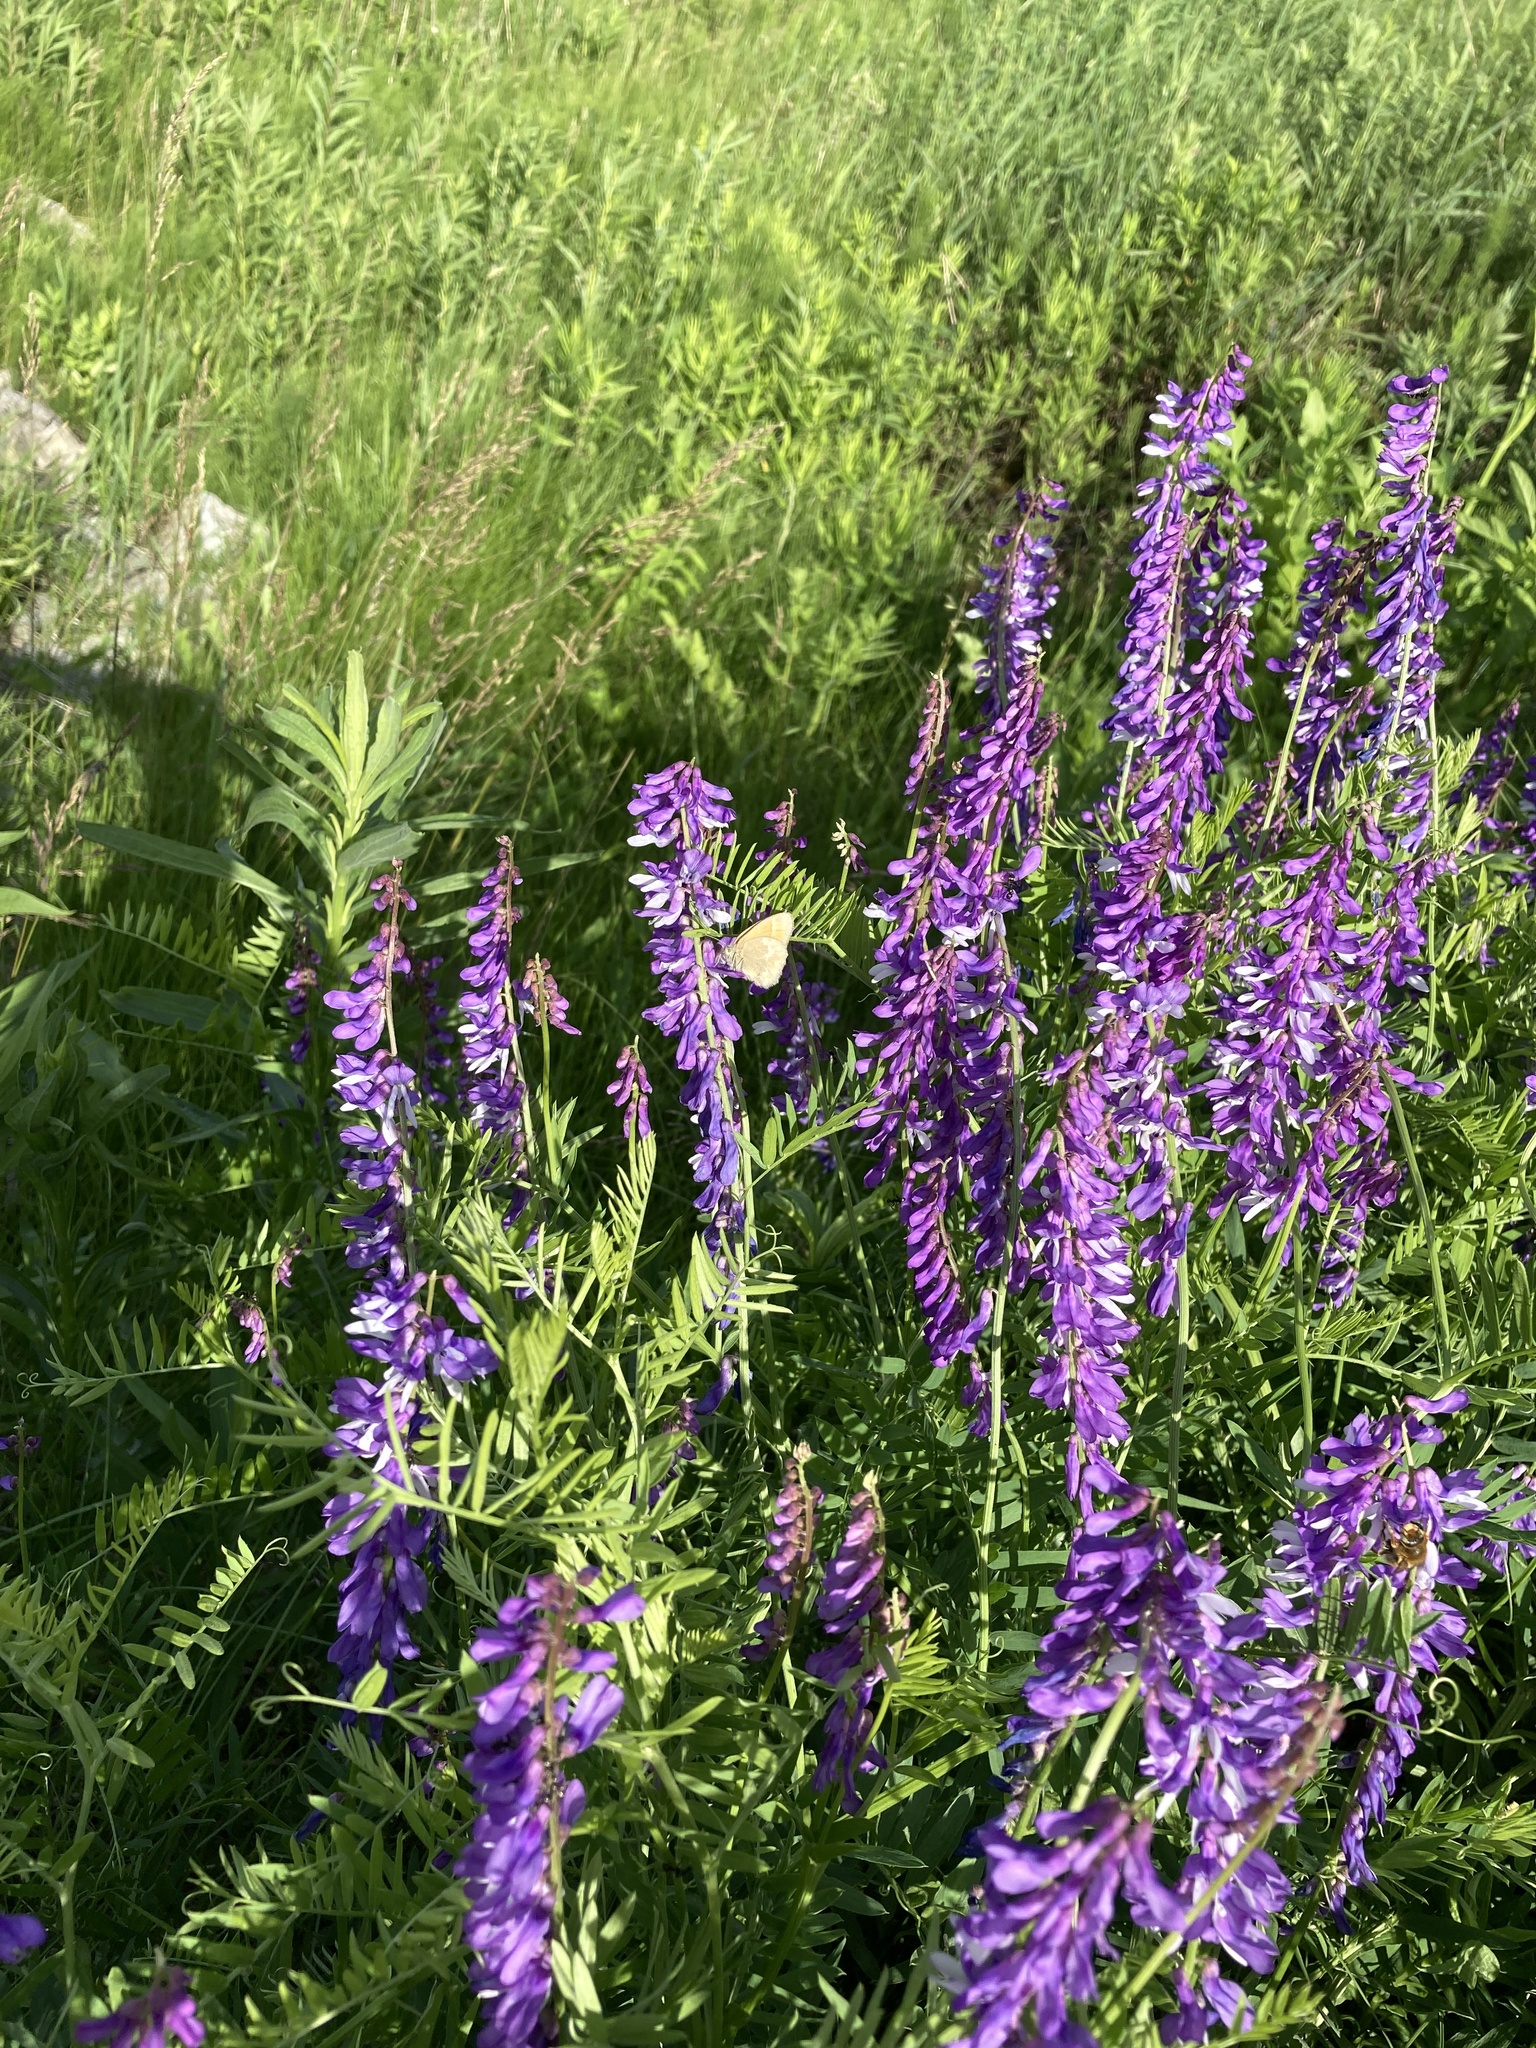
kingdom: Plantae
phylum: Tracheophyta
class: Magnoliopsida
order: Fabales
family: Fabaceae
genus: Vicia
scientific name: Vicia tenuifolia
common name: Fine-leaved vetch
